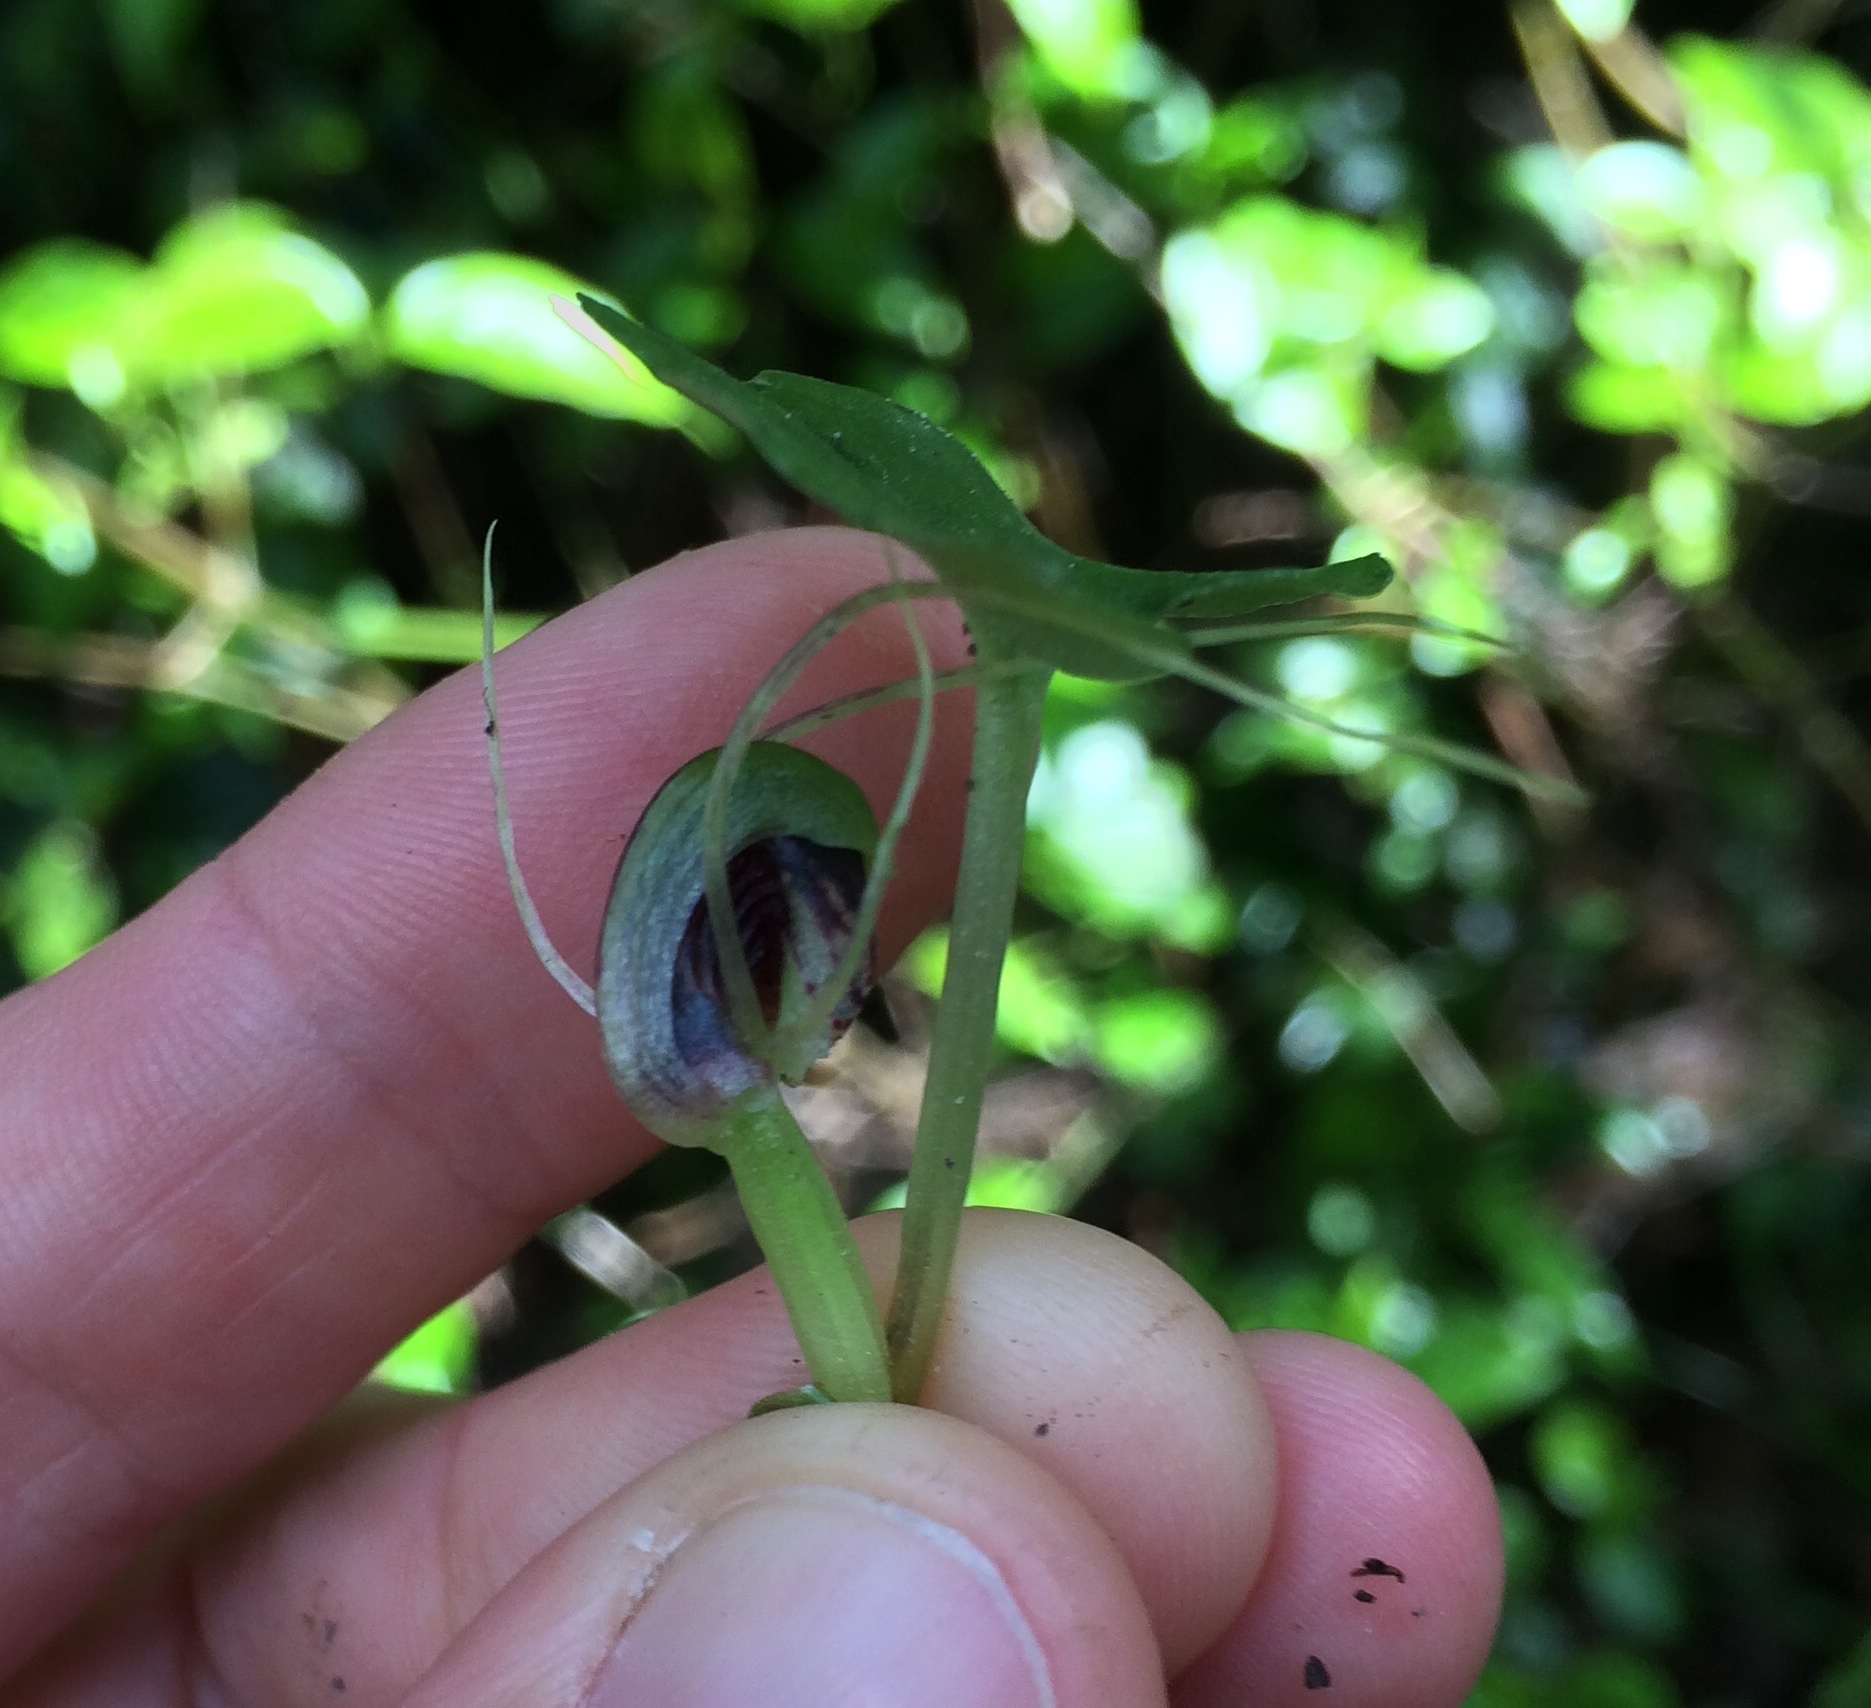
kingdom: Plantae
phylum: Tracheophyta
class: Liliopsida
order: Asparagales
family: Orchidaceae
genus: Corybas
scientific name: Corybas vitreus
